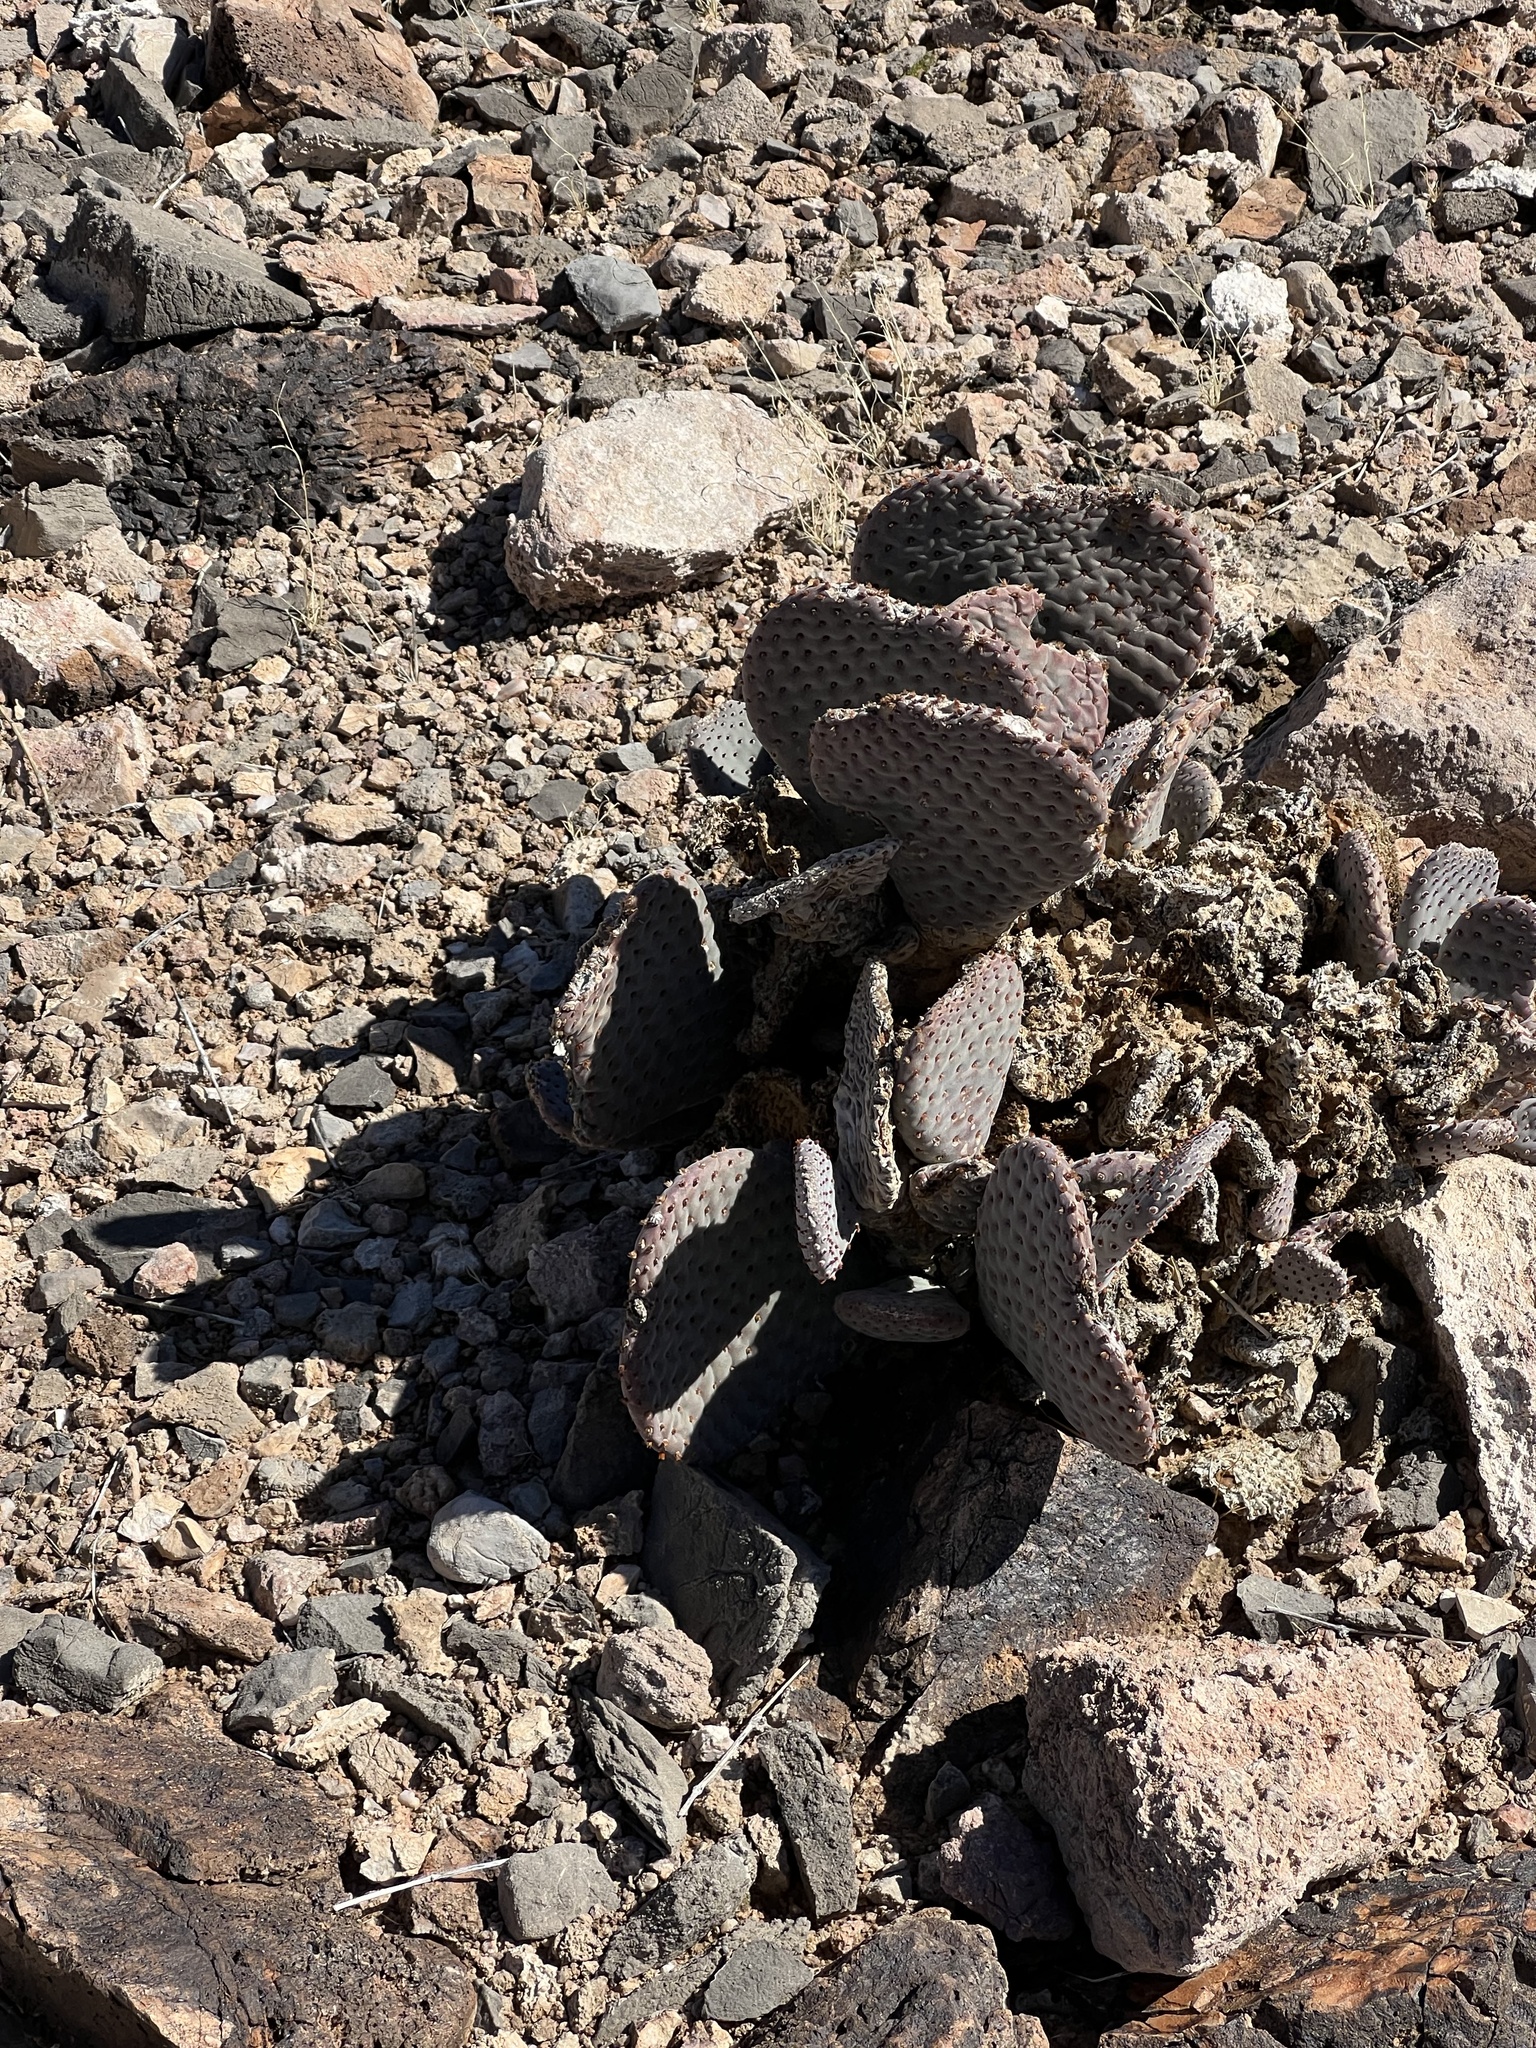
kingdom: Plantae
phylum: Tracheophyta
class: Magnoliopsida
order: Caryophyllales
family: Cactaceae
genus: Opuntia
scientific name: Opuntia basilaris
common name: Beavertail prickly-pear
